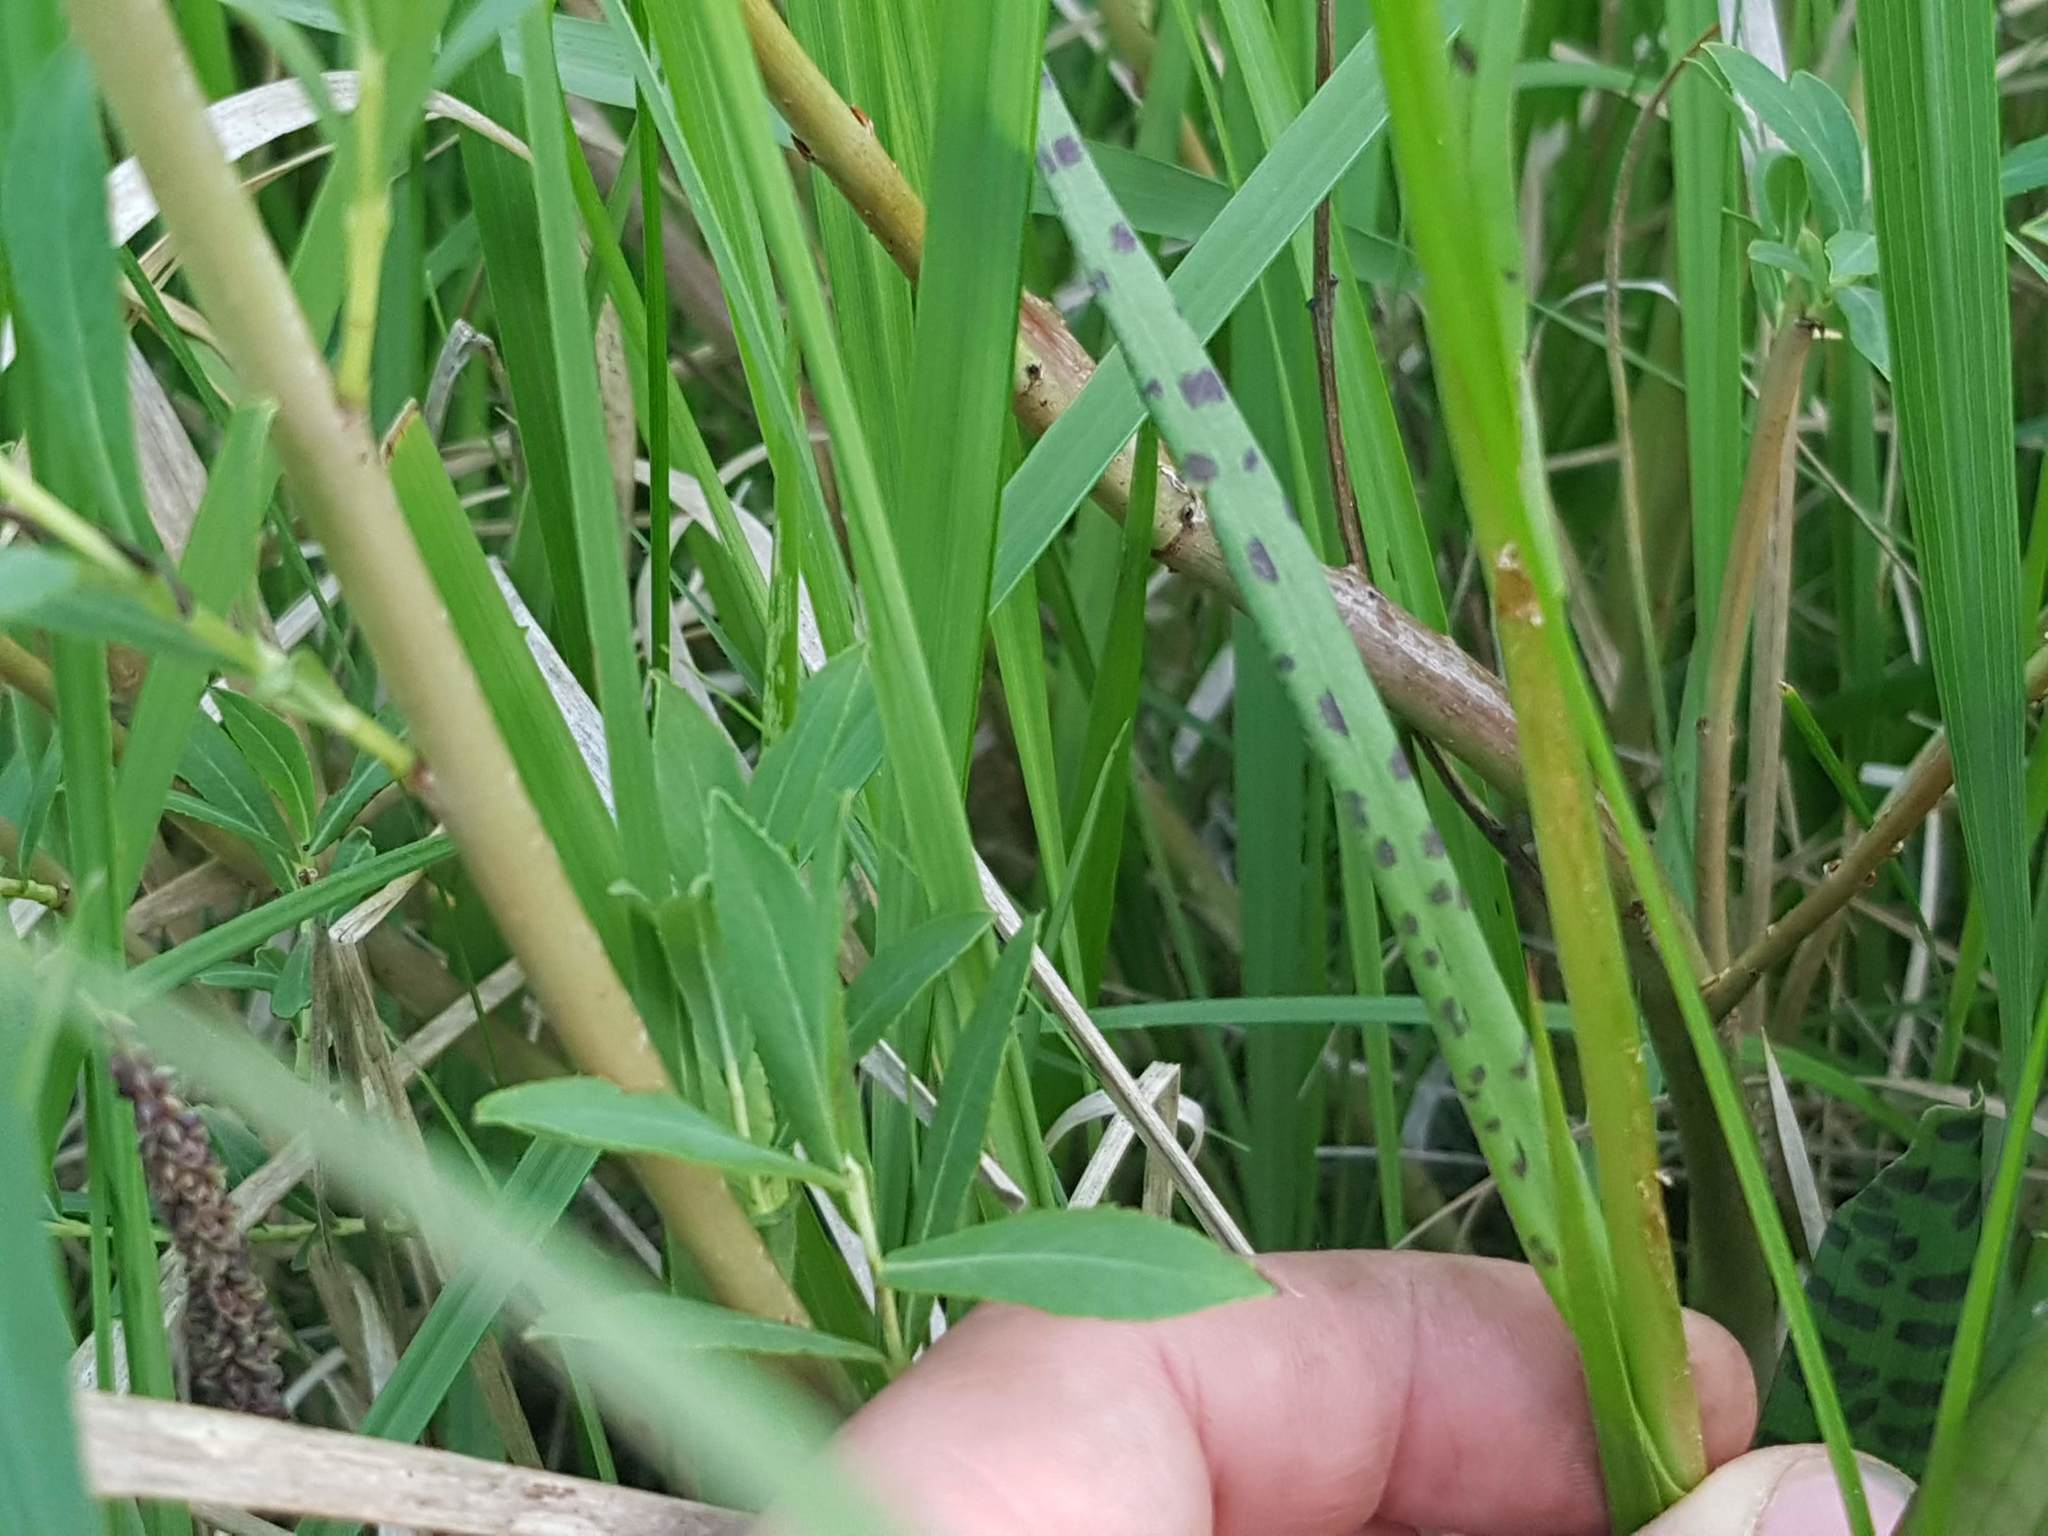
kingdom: Plantae
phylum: Tracheophyta
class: Liliopsida
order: Asparagales
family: Orchidaceae
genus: Dactylorhiza
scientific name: Dactylorhiza majalis
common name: Marsh orchid
